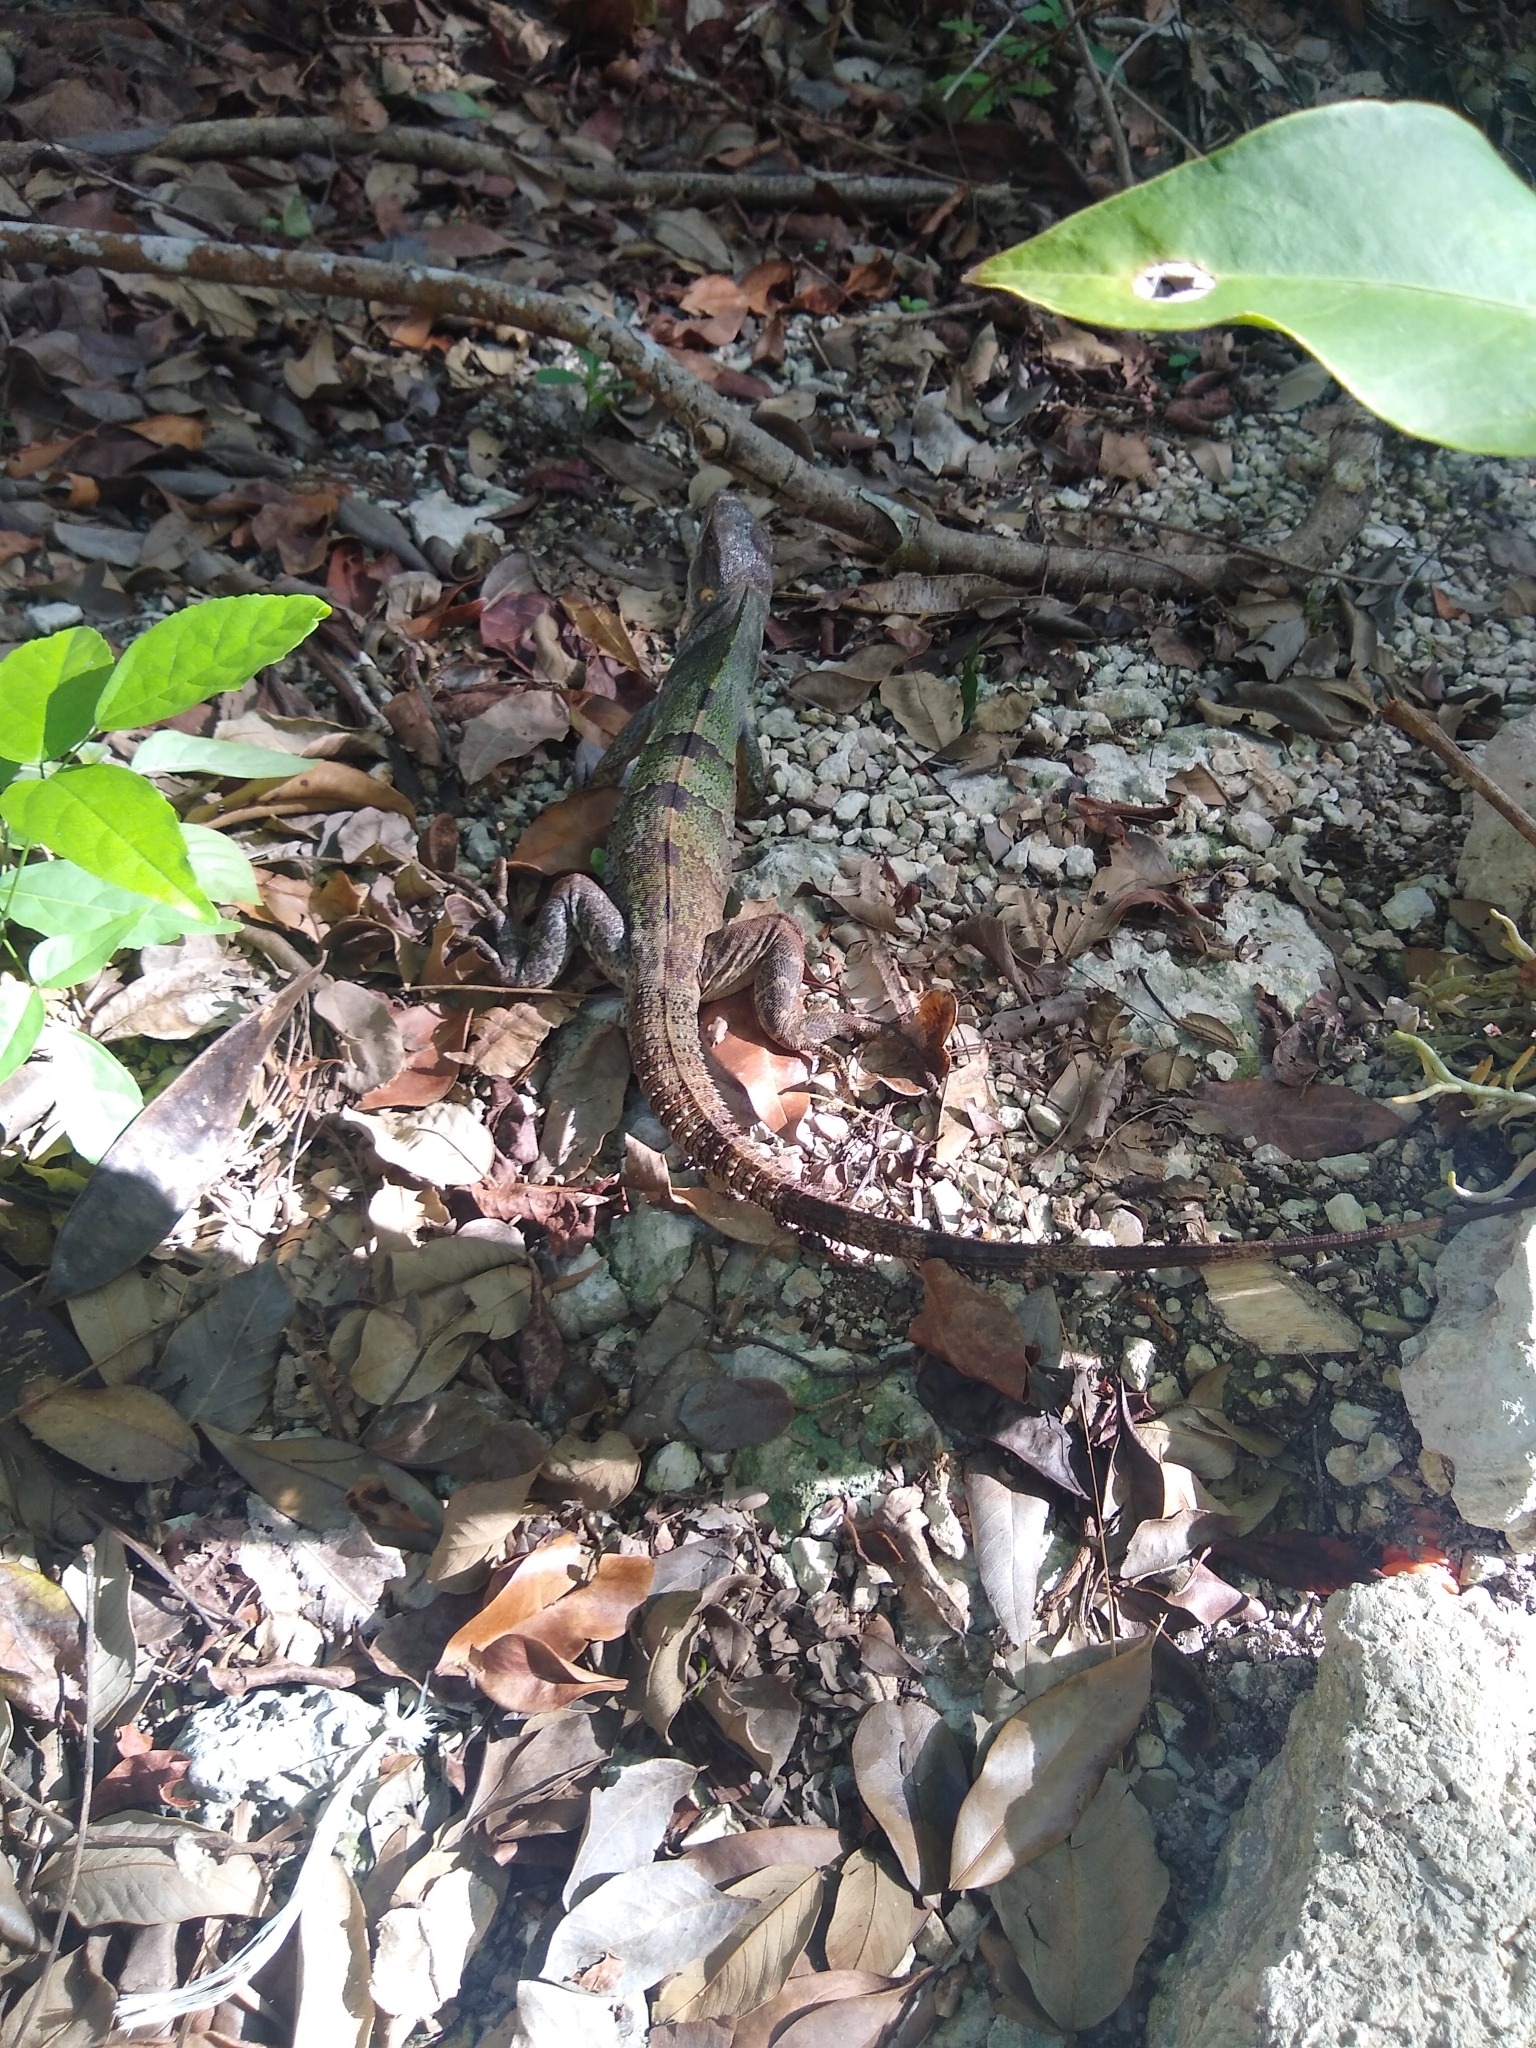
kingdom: Animalia
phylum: Chordata
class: Squamata
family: Iguanidae
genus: Ctenosaura
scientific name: Ctenosaura similis
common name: Black spiny-tailed iguana
